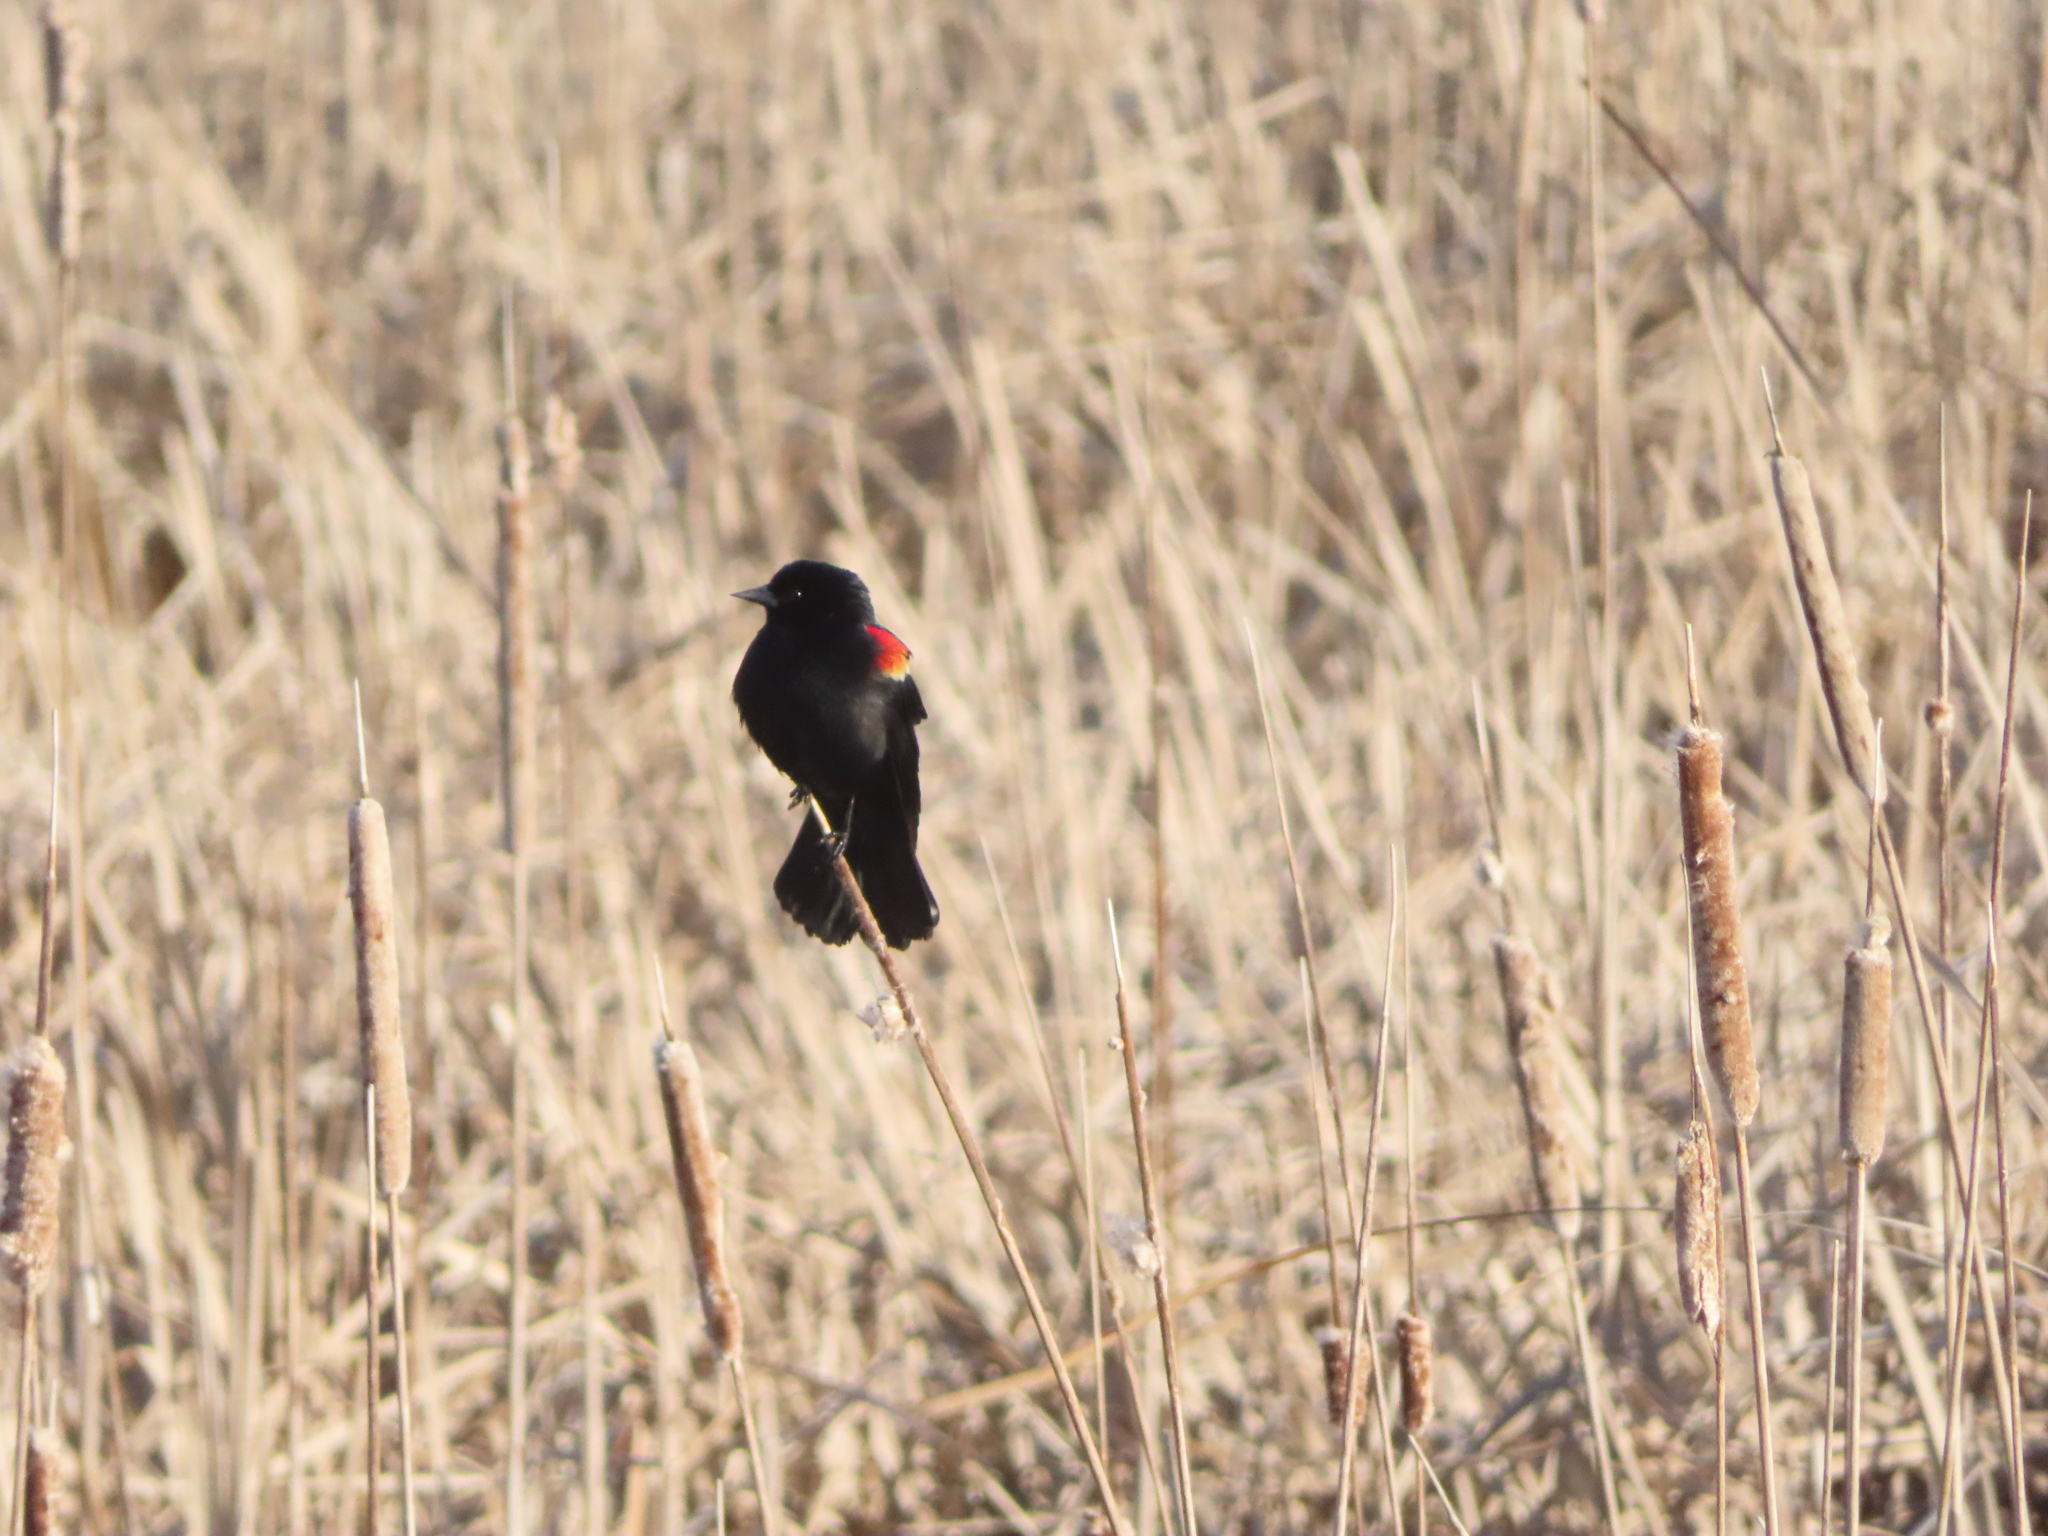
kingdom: Animalia
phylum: Chordata
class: Aves
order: Passeriformes
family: Icteridae
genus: Agelaius
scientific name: Agelaius phoeniceus
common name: Red-winged blackbird
